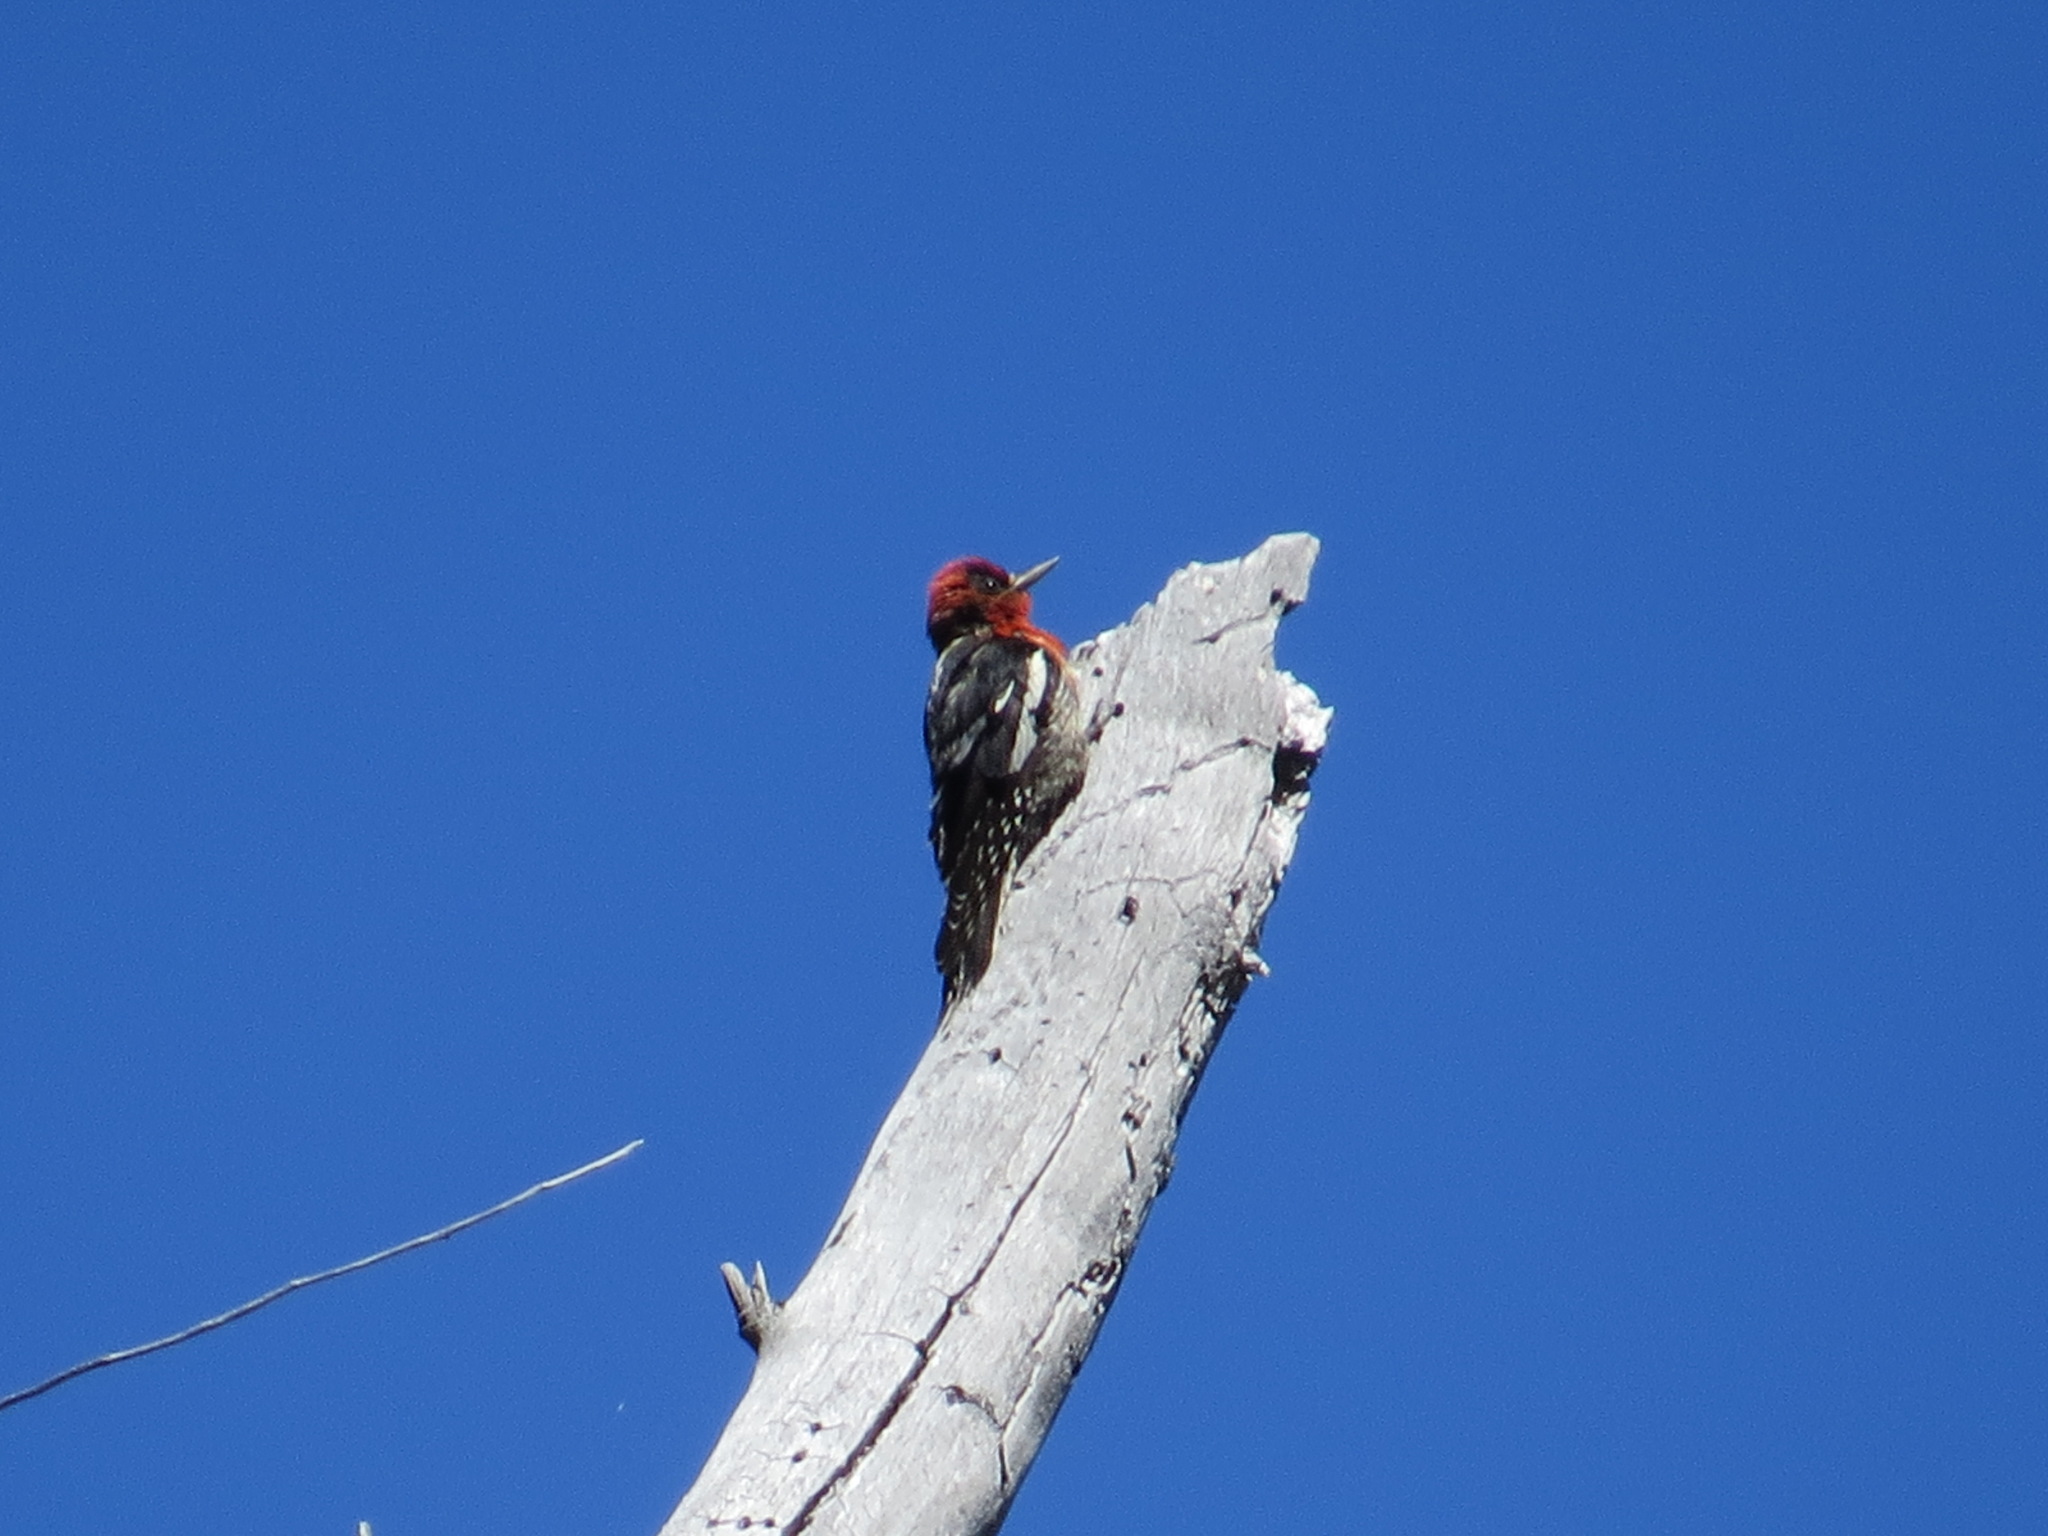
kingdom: Animalia
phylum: Chordata
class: Aves
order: Piciformes
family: Picidae
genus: Sphyrapicus
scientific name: Sphyrapicus ruber
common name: Red-breasted sapsucker
